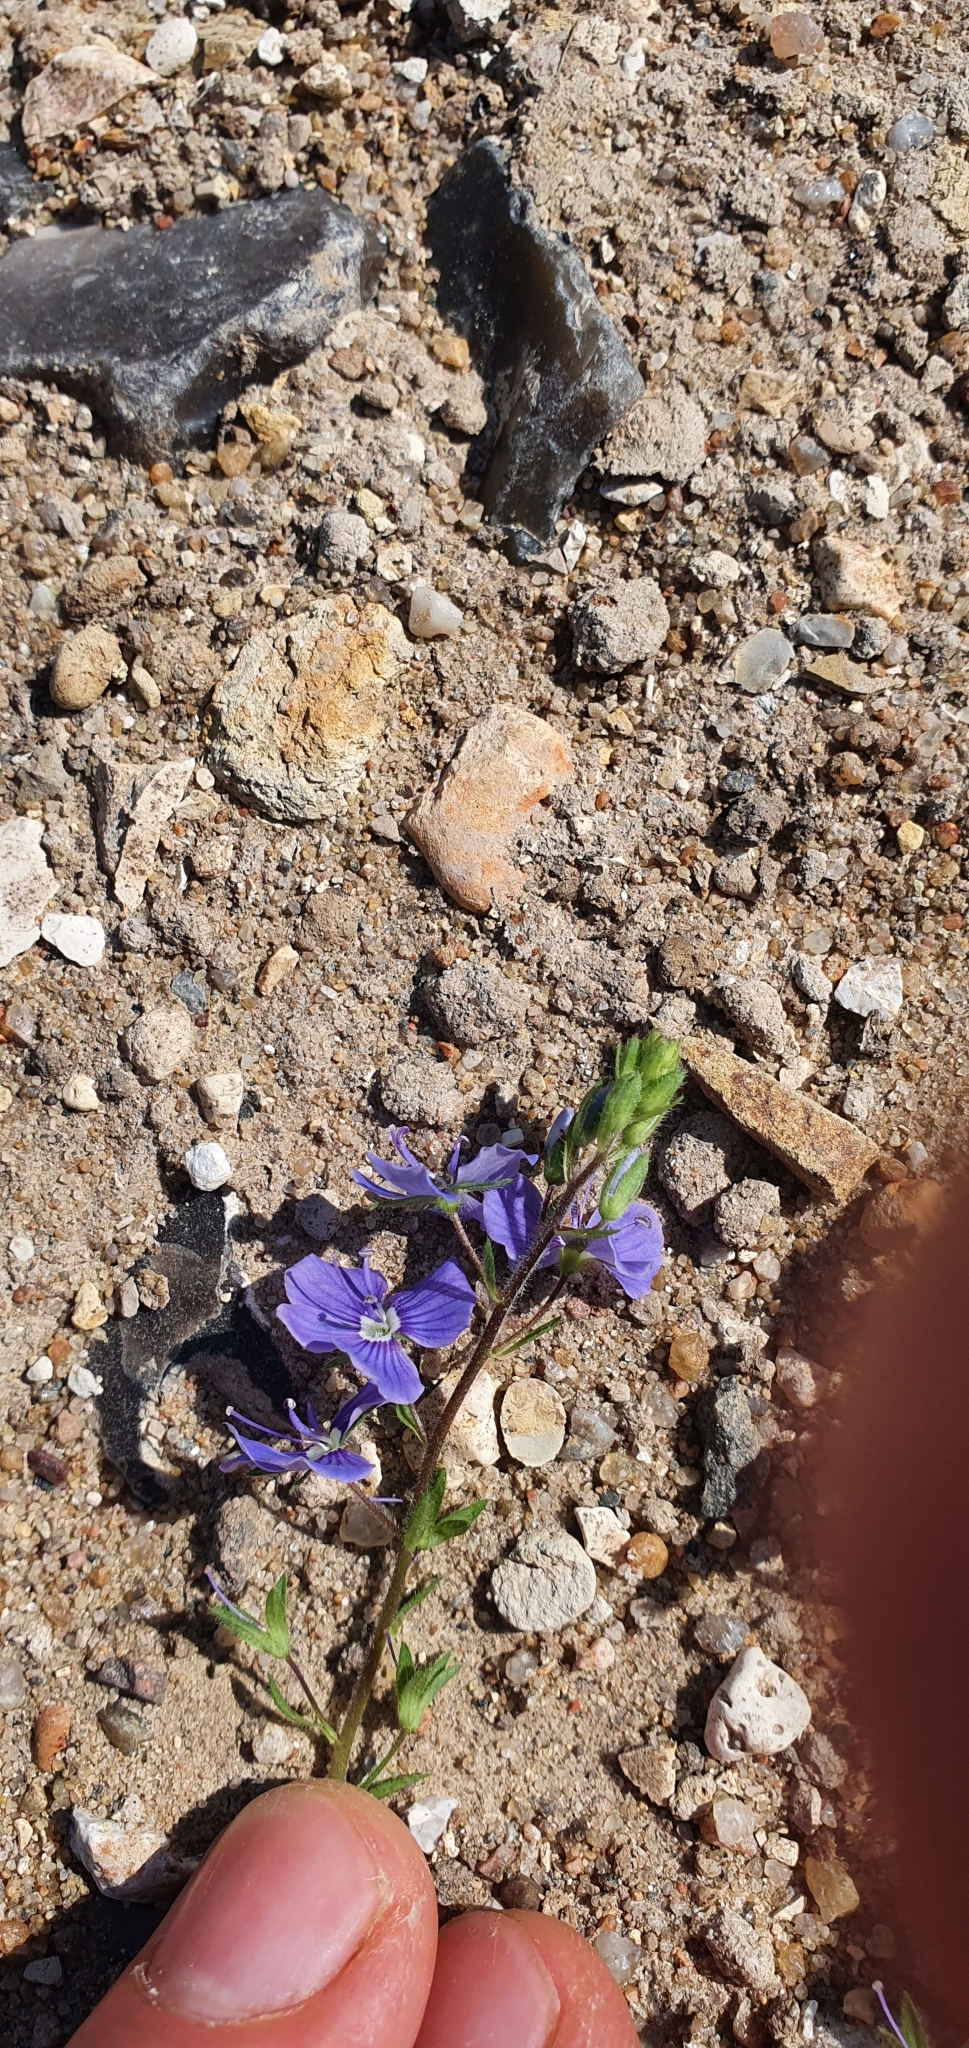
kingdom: Plantae
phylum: Tracheophyta
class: Magnoliopsida
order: Lamiales
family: Plantaginaceae
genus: Veronica
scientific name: Veronica chamaedrys
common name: Germander speedwell
